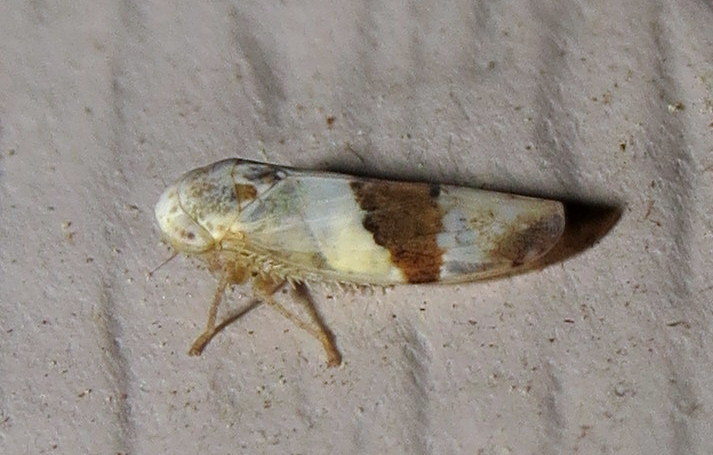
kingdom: Animalia
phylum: Arthropoda
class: Insecta
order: Hemiptera
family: Cicadellidae
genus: Norvellina
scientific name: Norvellina seminuda
